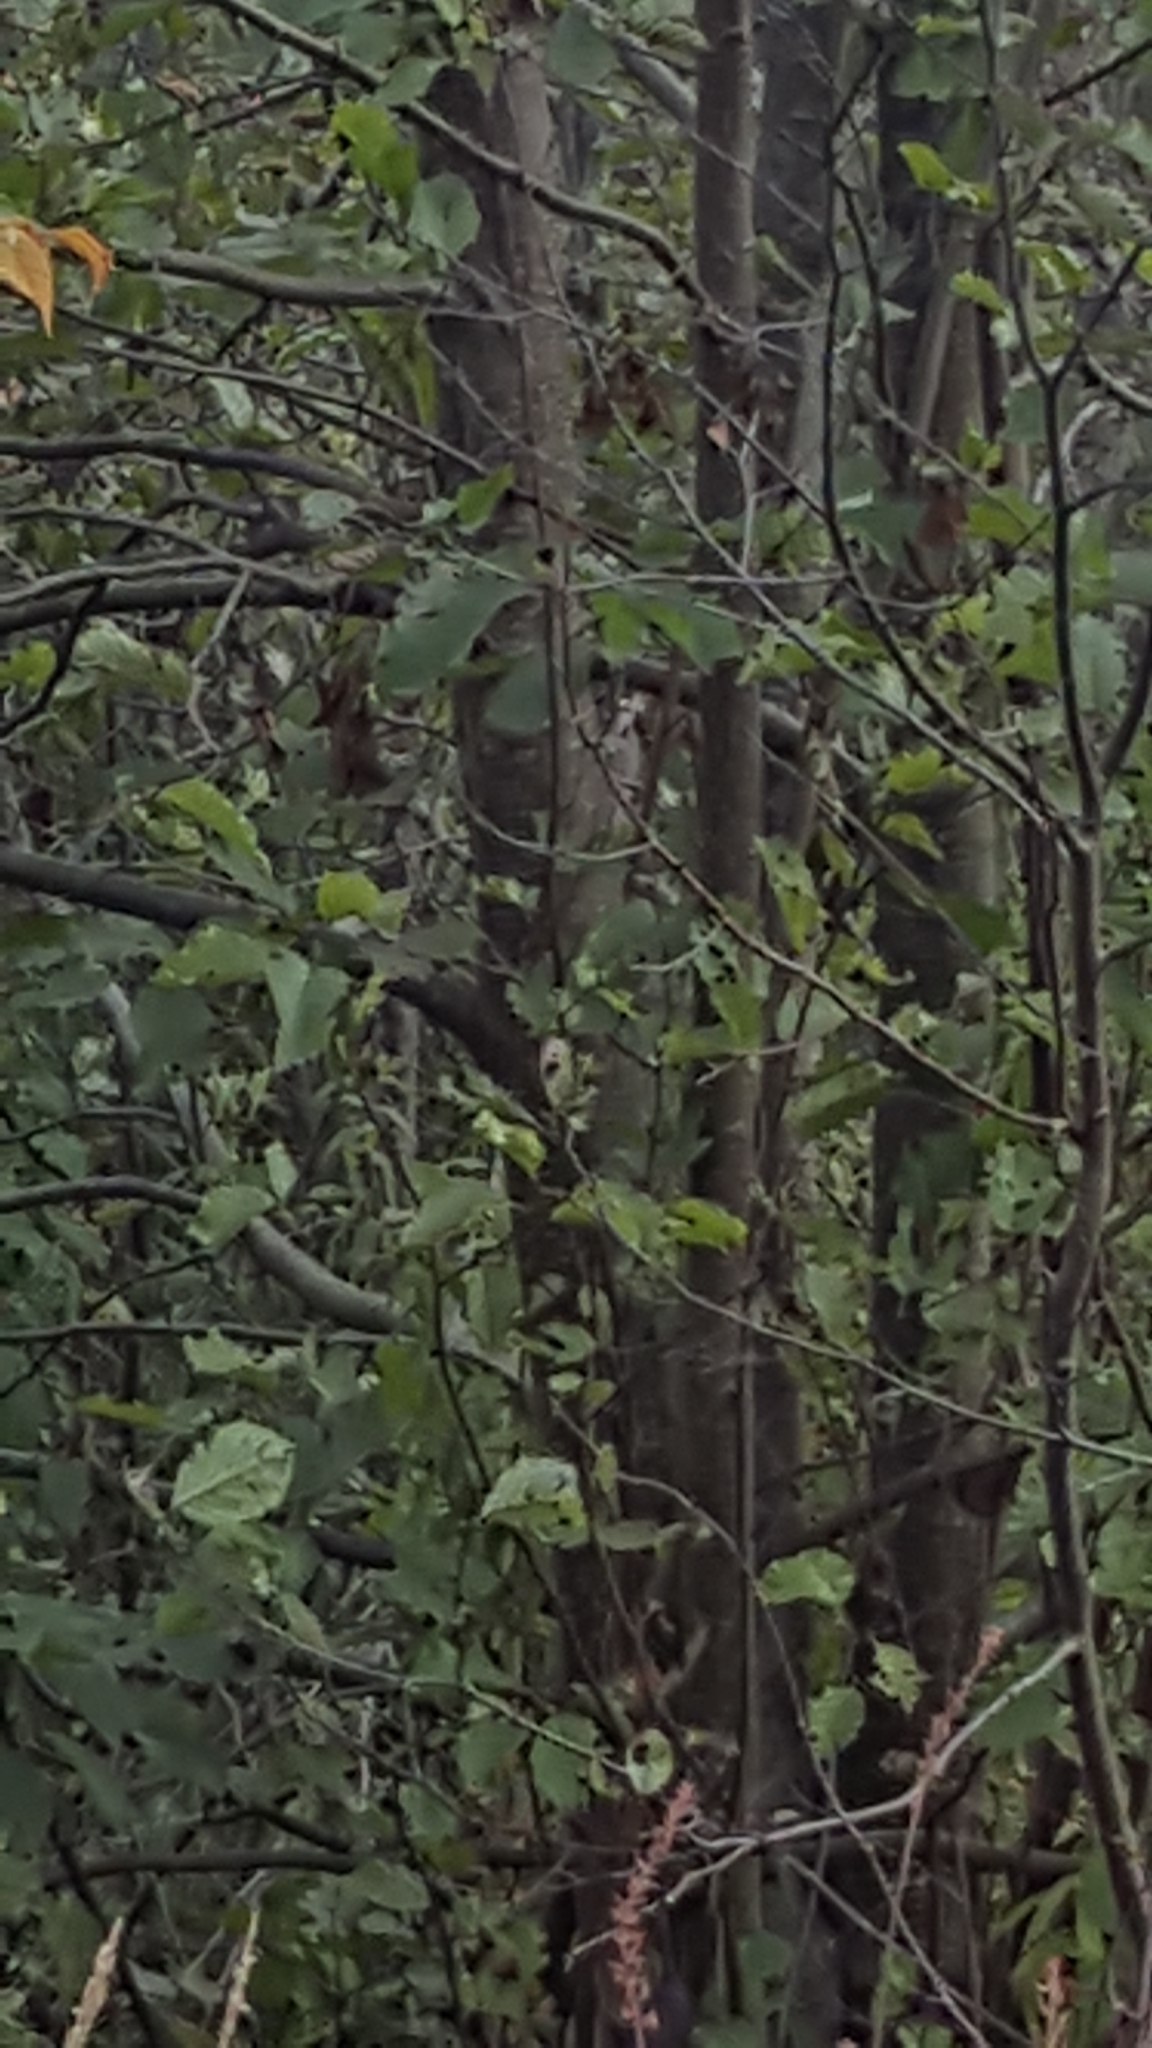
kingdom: Plantae
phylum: Tracheophyta
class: Magnoliopsida
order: Fagales
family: Betulaceae
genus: Alnus
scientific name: Alnus glutinosa
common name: Black alder
